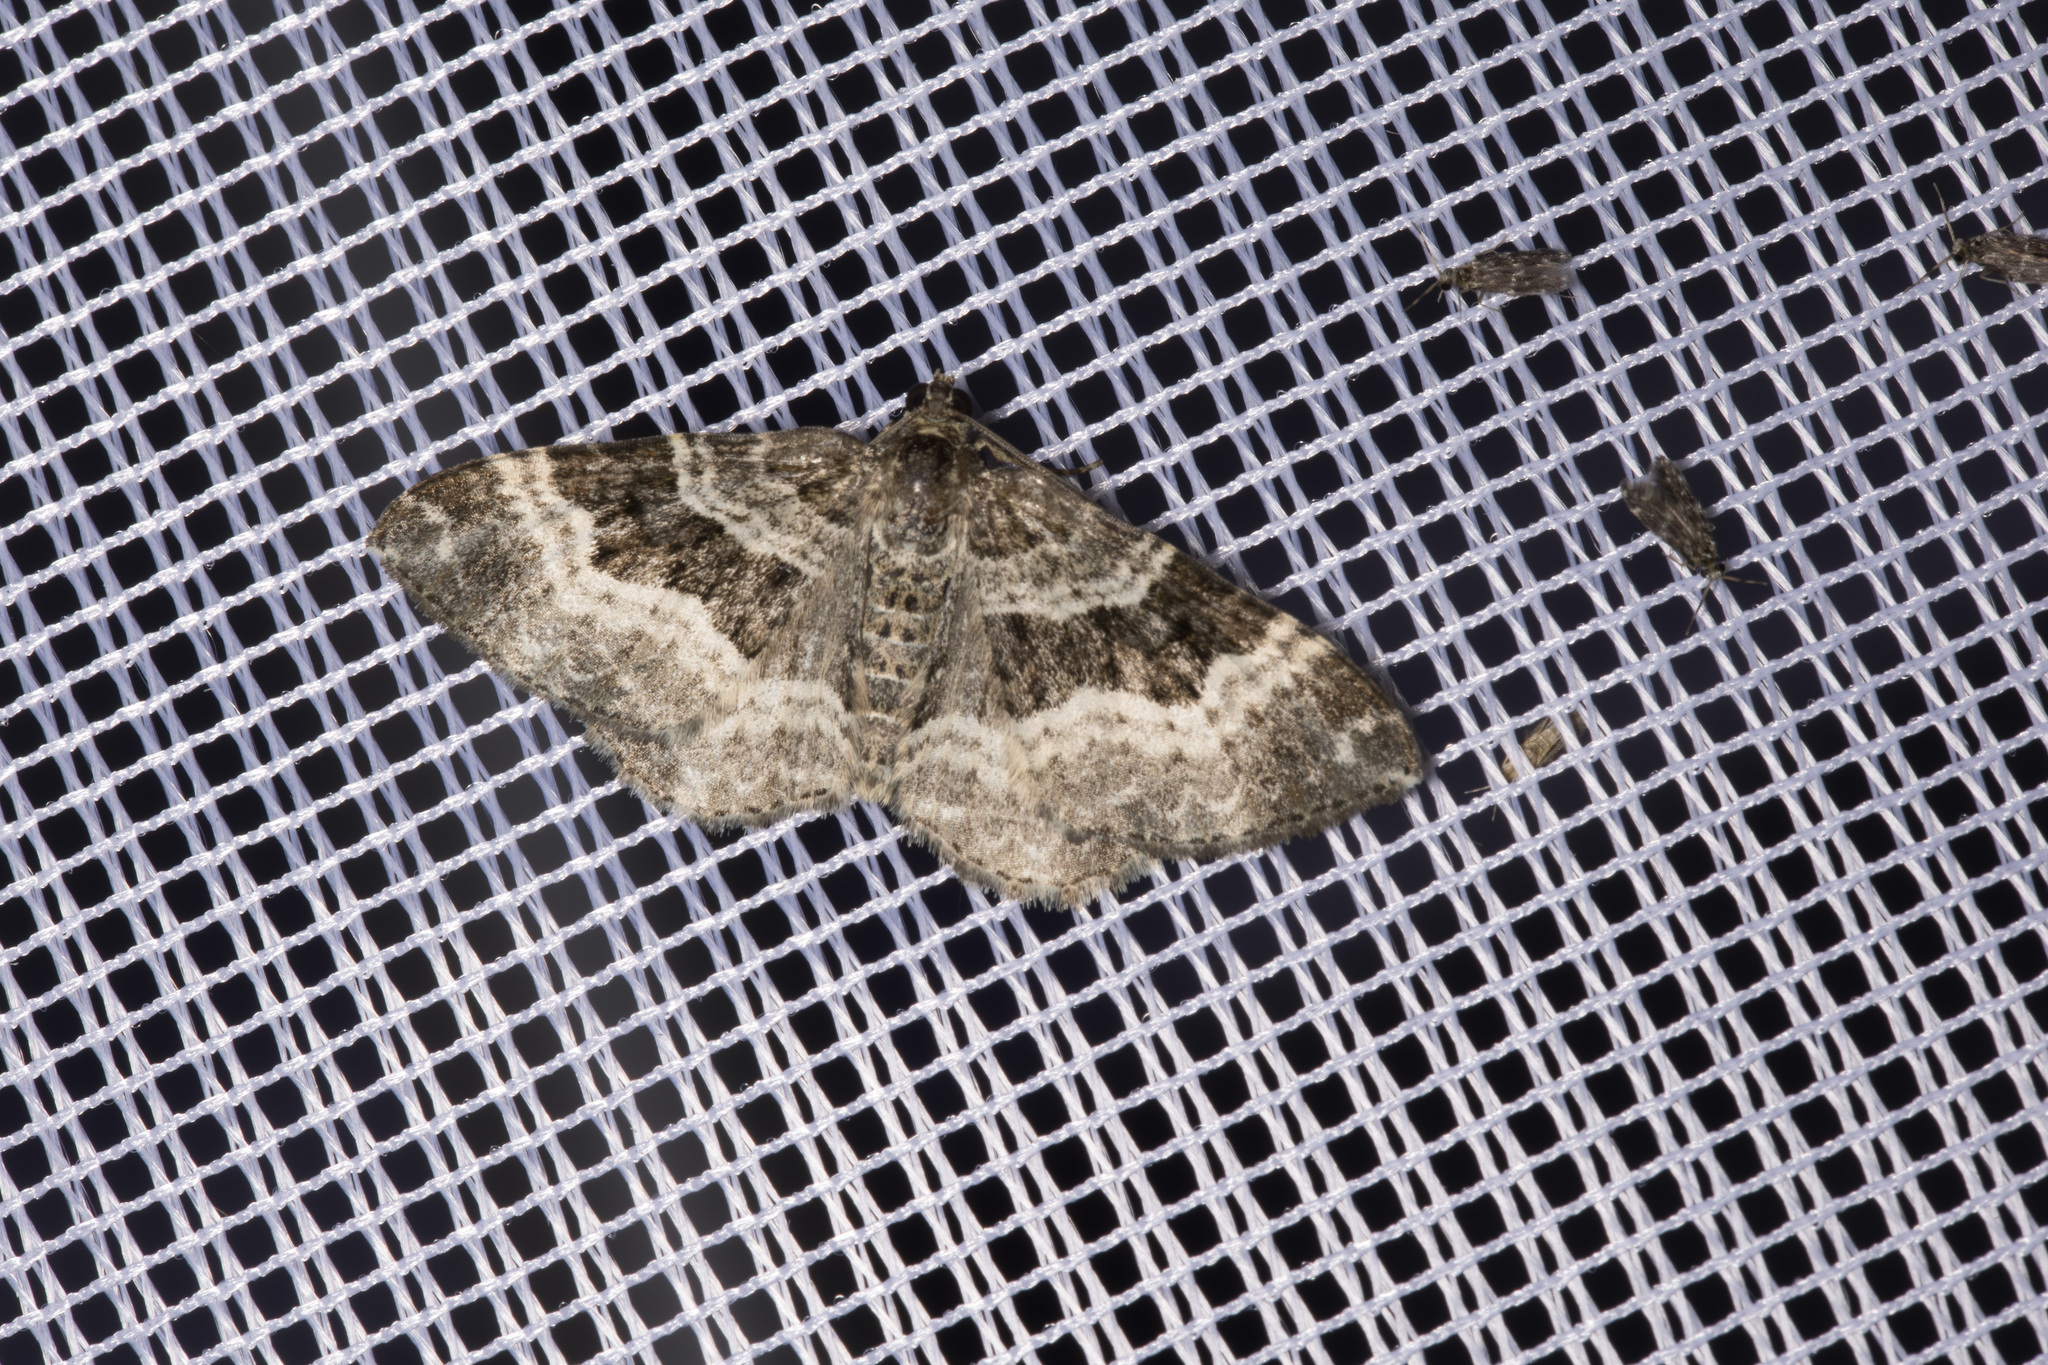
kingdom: Animalia
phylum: Arthropoda
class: Insecta
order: Lepidoptera
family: Geometridae
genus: Epirrhoe
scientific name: Epirrhoe alternata
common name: Common carpet
